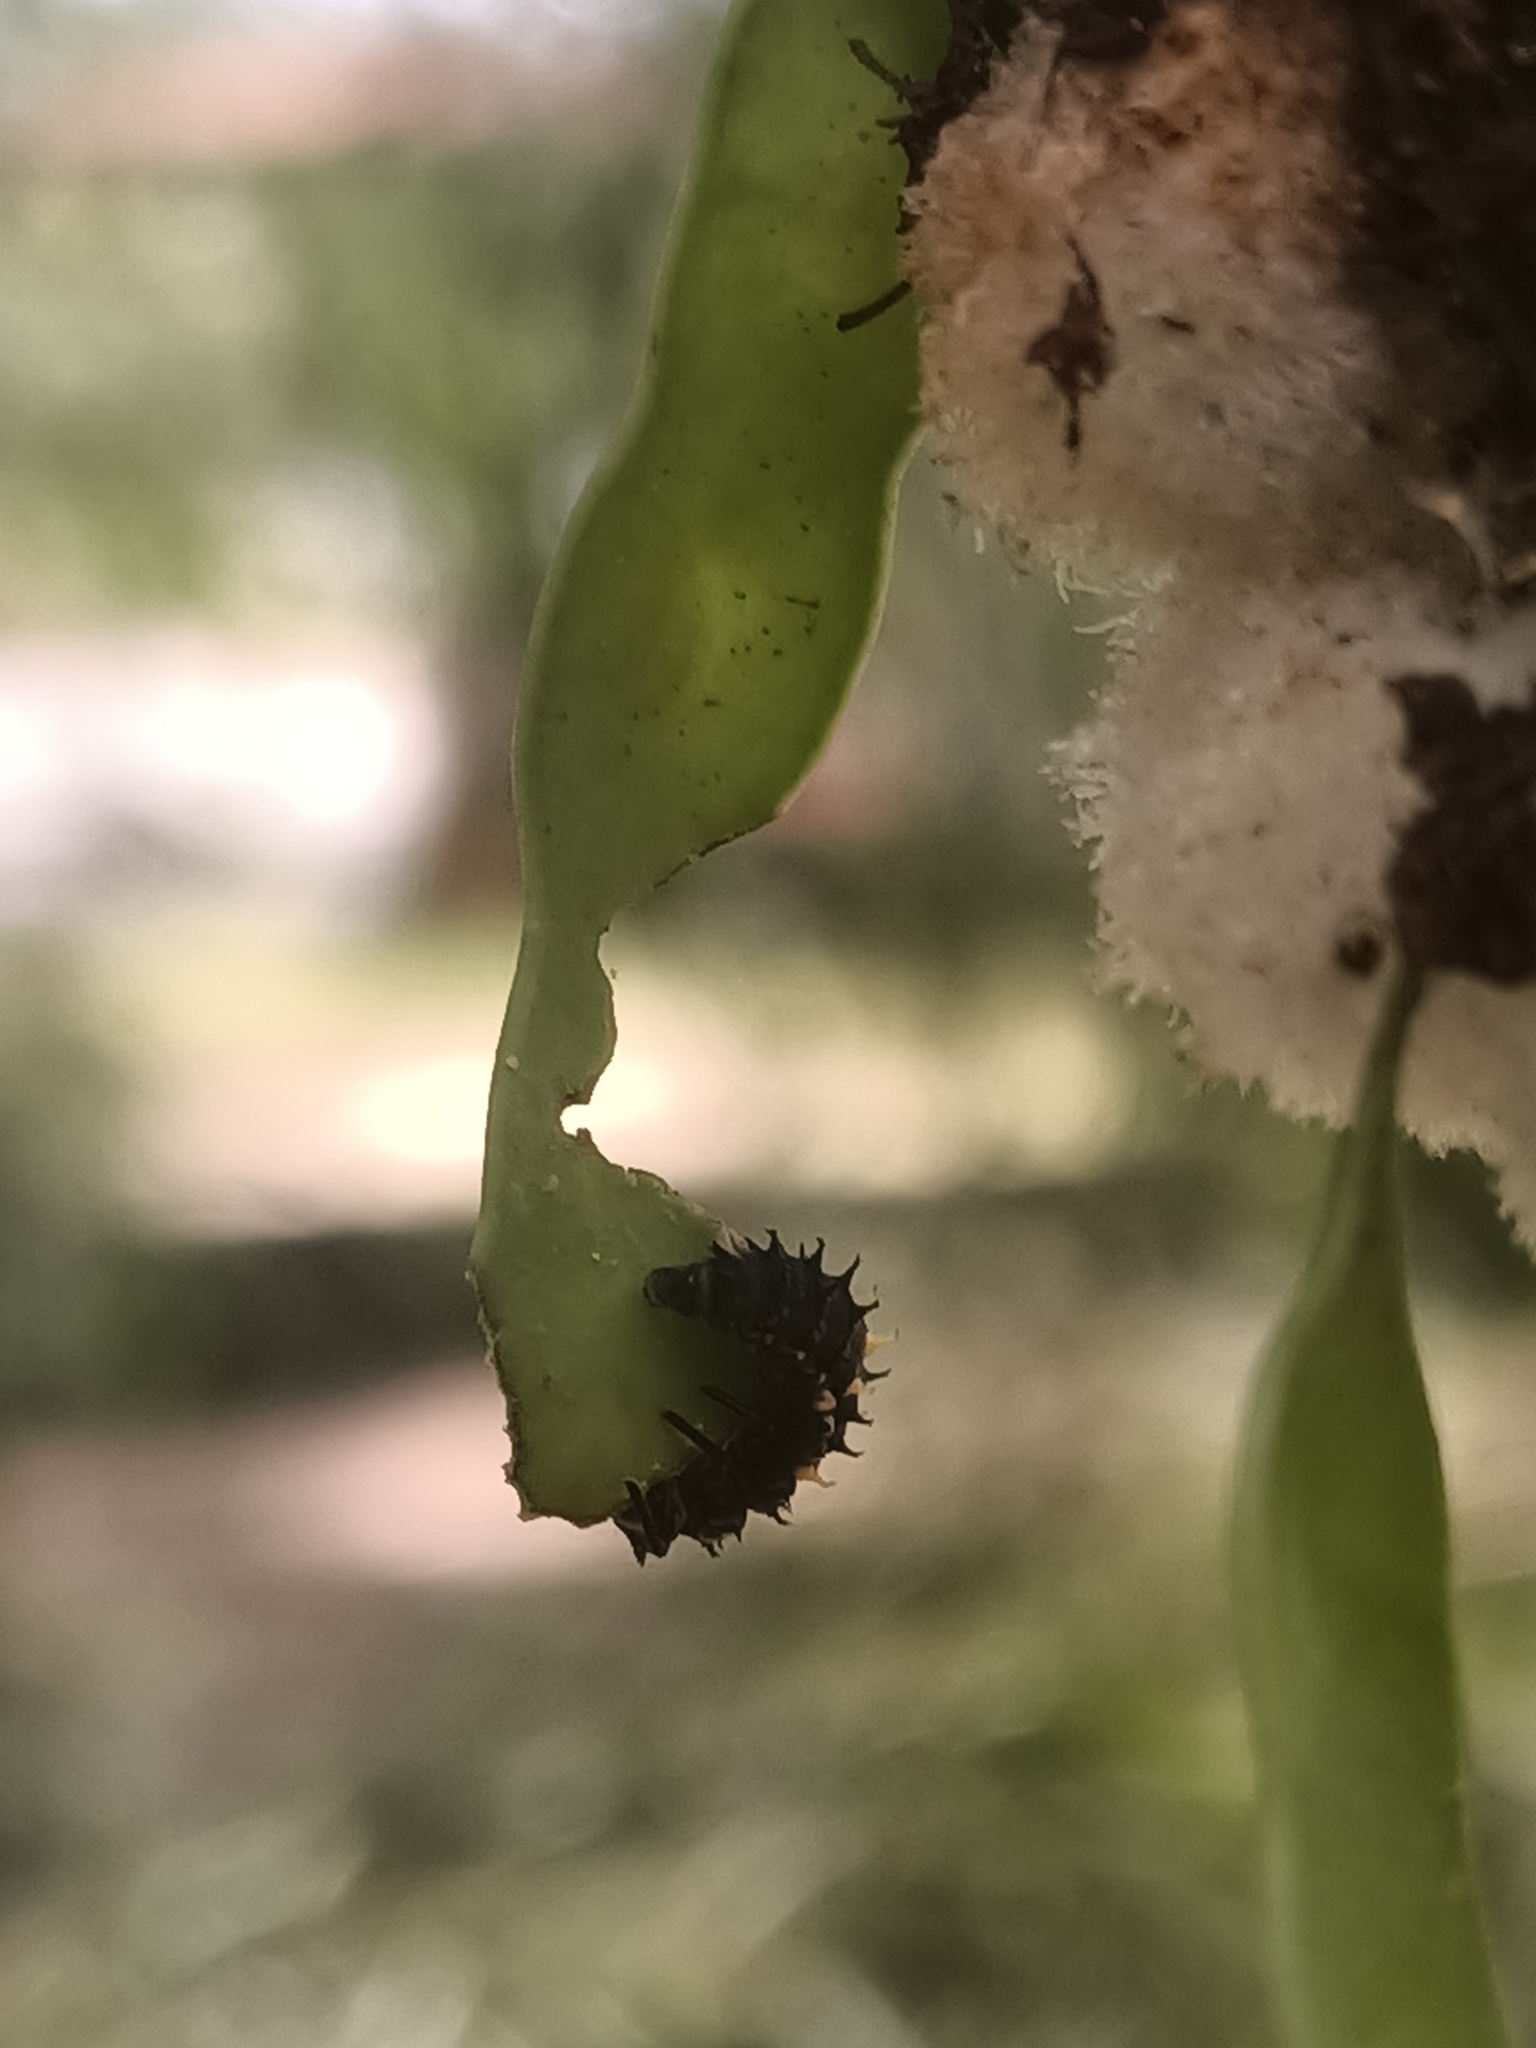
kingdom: Animalia
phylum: Arthropoda
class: Insecta
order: Coleoptera
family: Coccinellidae
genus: Harmonia
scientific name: Harmonia conformis
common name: Common spotted ladybird beetle
